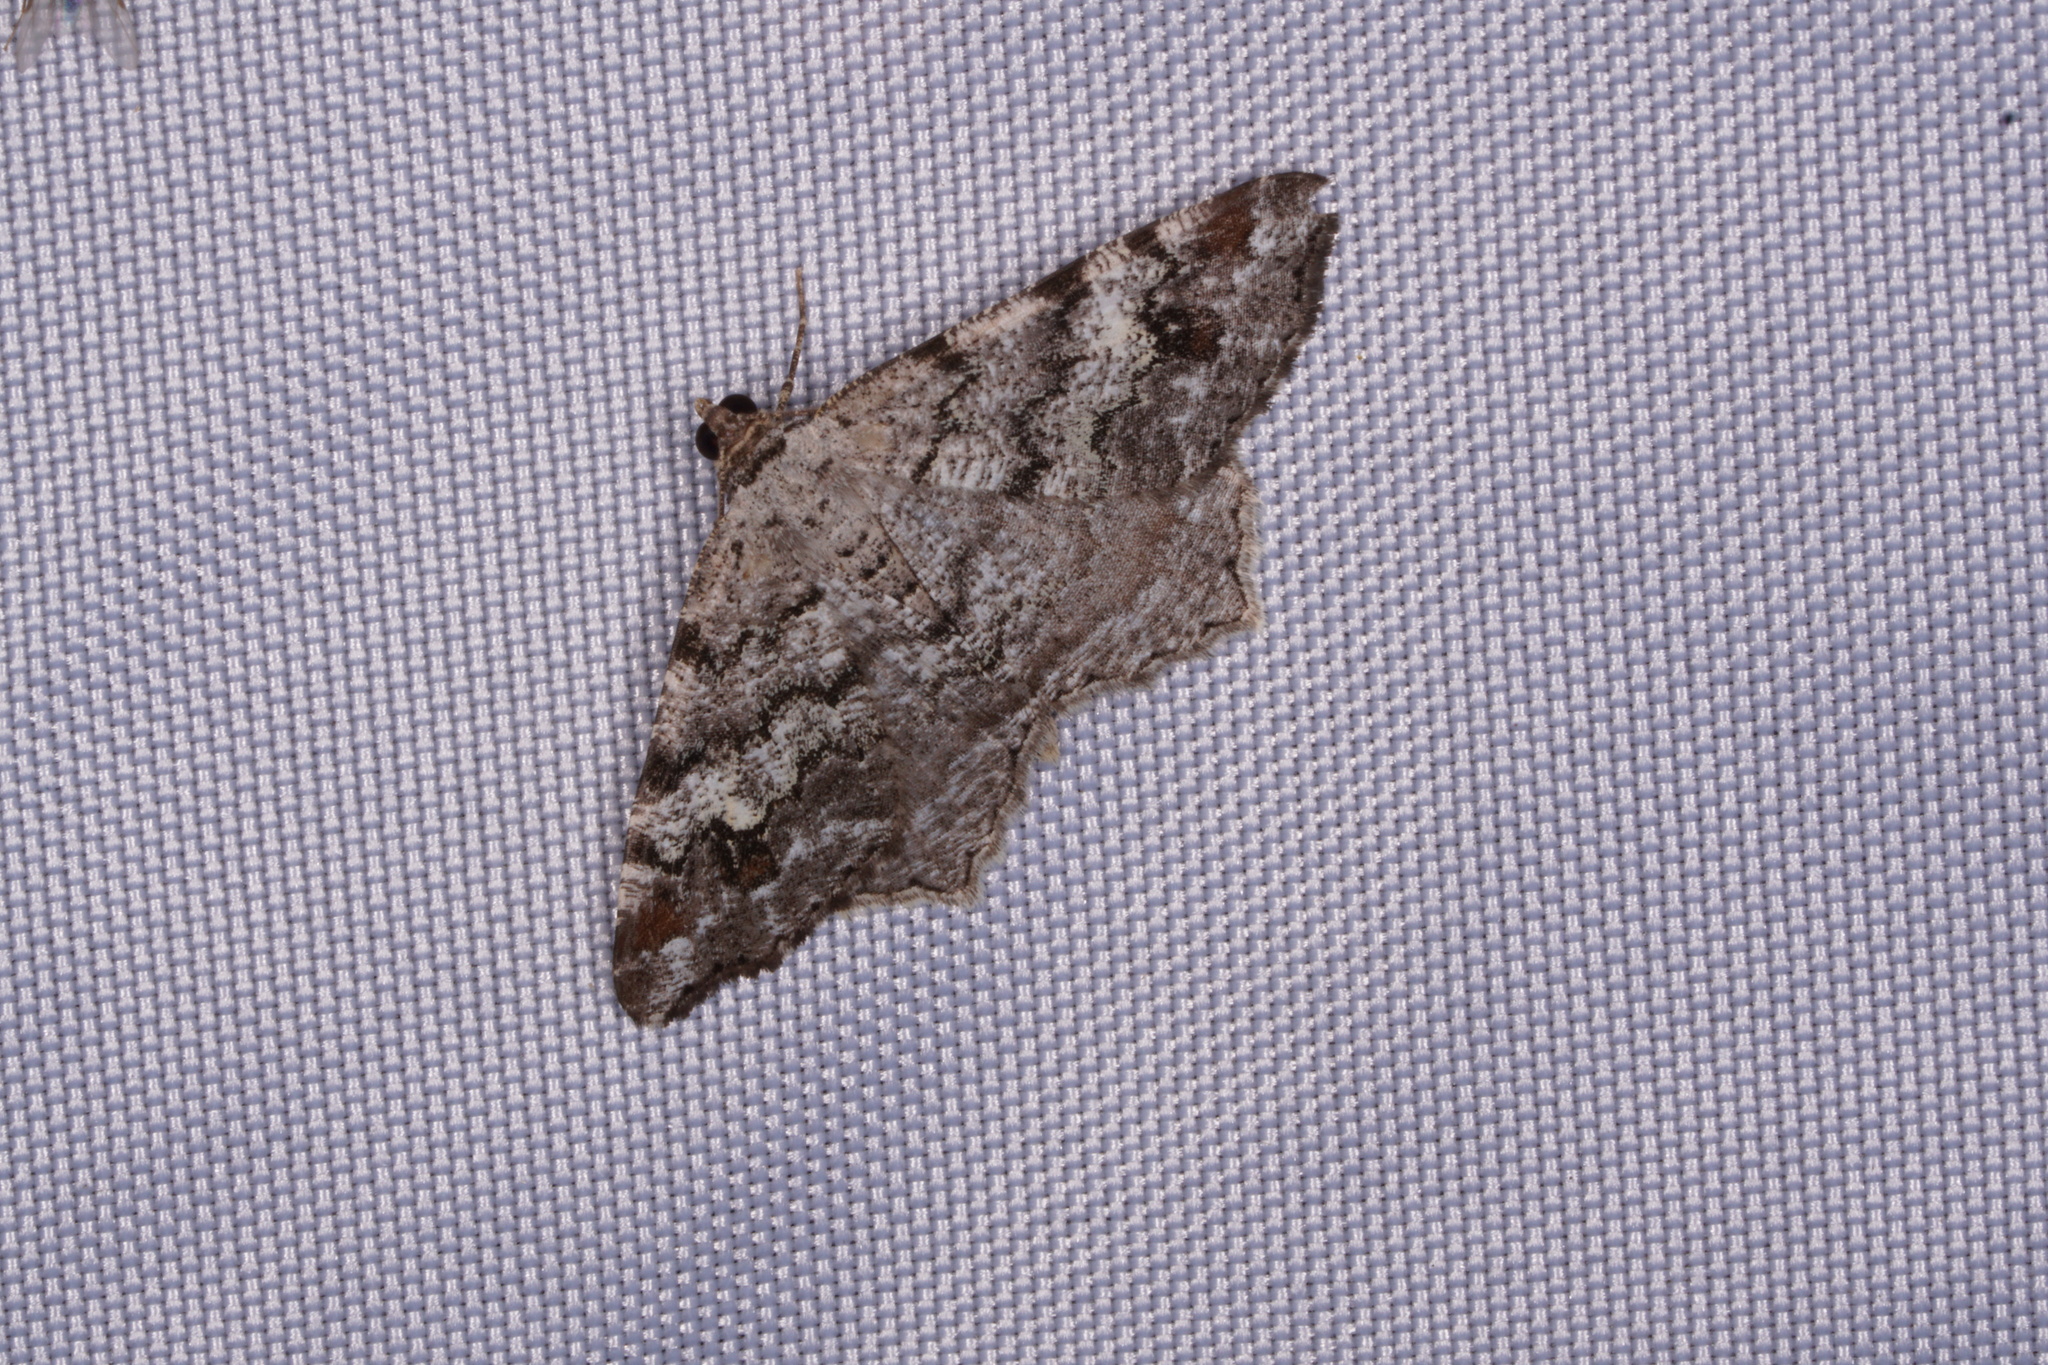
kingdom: Animalia
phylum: Arthropoda
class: Insecta
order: Lepidoptera
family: Geometridae
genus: Macaria
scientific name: Macaria granitata
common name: Granite moth
